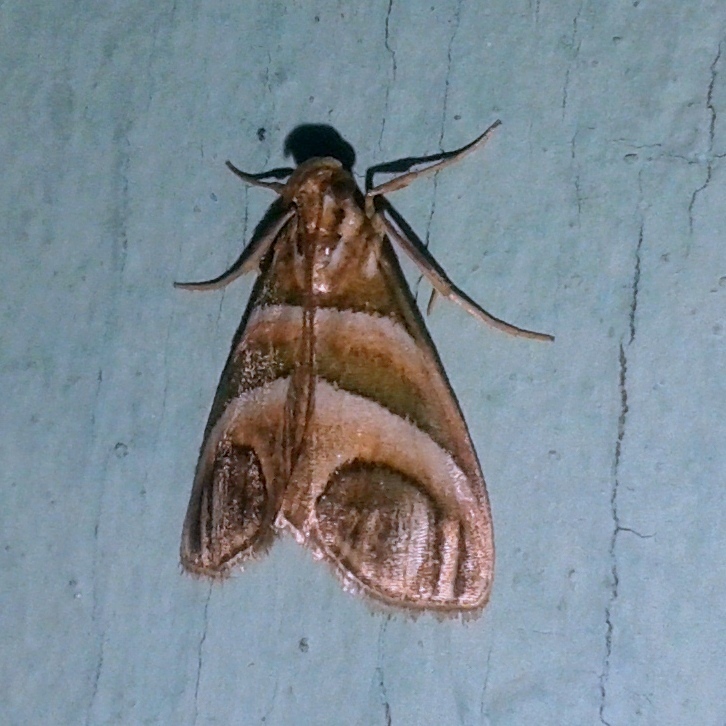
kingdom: Animalia
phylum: Arthropoda
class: Insecta
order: Lepidoptera
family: Pyralidae
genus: Incarcha
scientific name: Incarcha argentilinea
